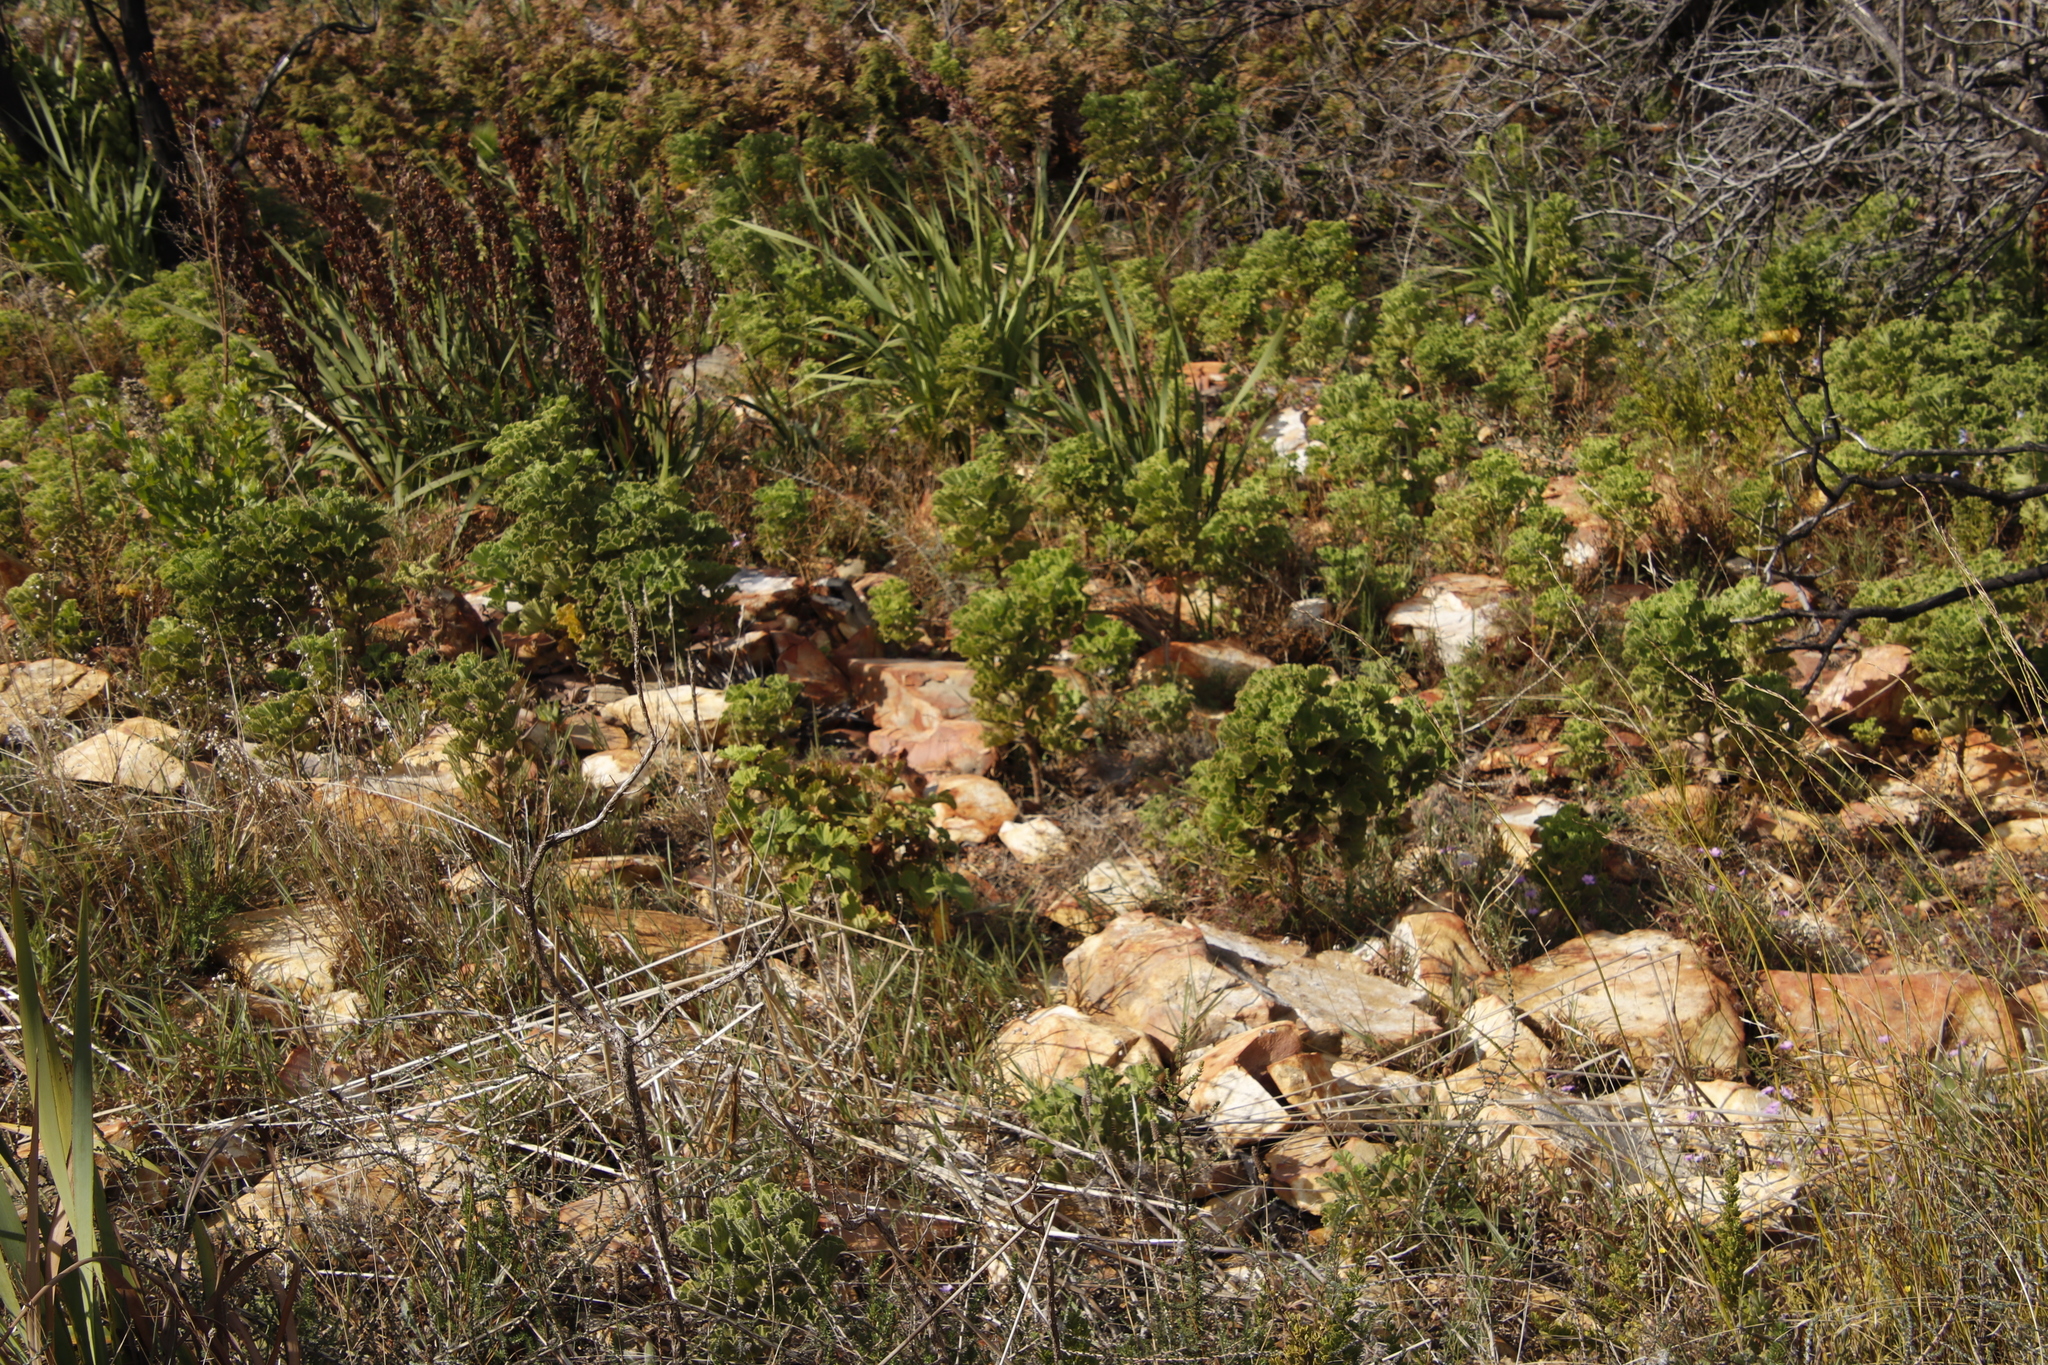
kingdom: Plantae
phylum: Tracheophyta
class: Magnoliopsida
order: Geraniales
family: Geraniaceae
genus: Pelargonium
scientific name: Pelargonium cucullatum
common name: Tree pelargonium
